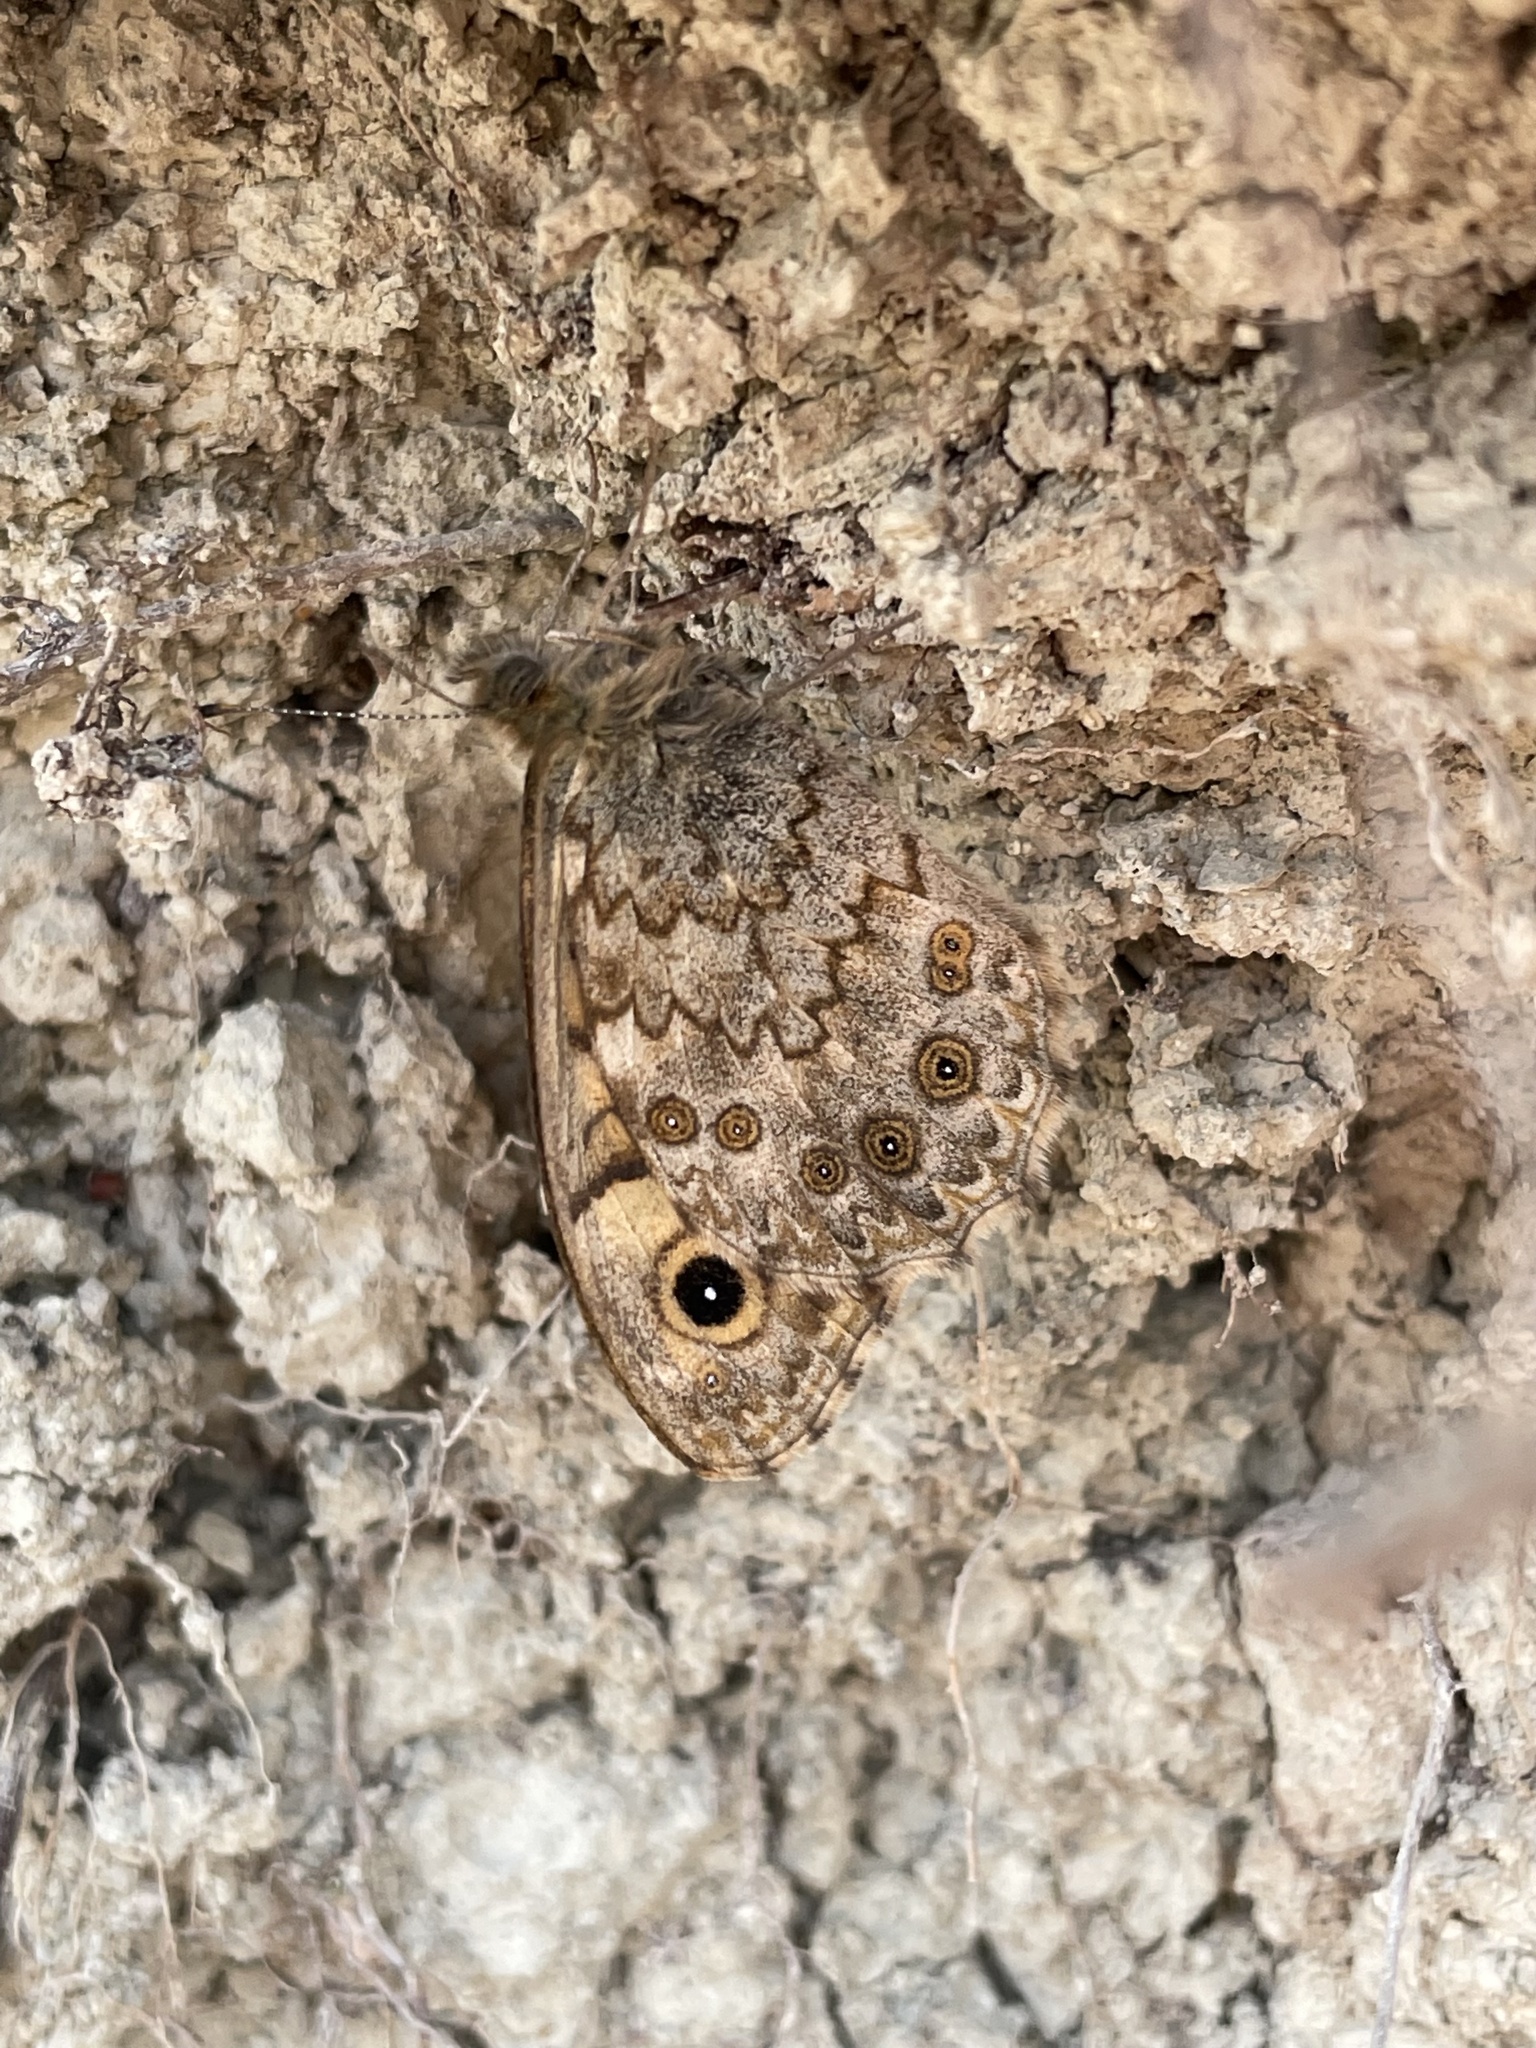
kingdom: Animalia
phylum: Arthropoda
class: Insecta
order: Lepidoptera
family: Nymphalidae
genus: Pararge
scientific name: Pararge Lasiommata megera
